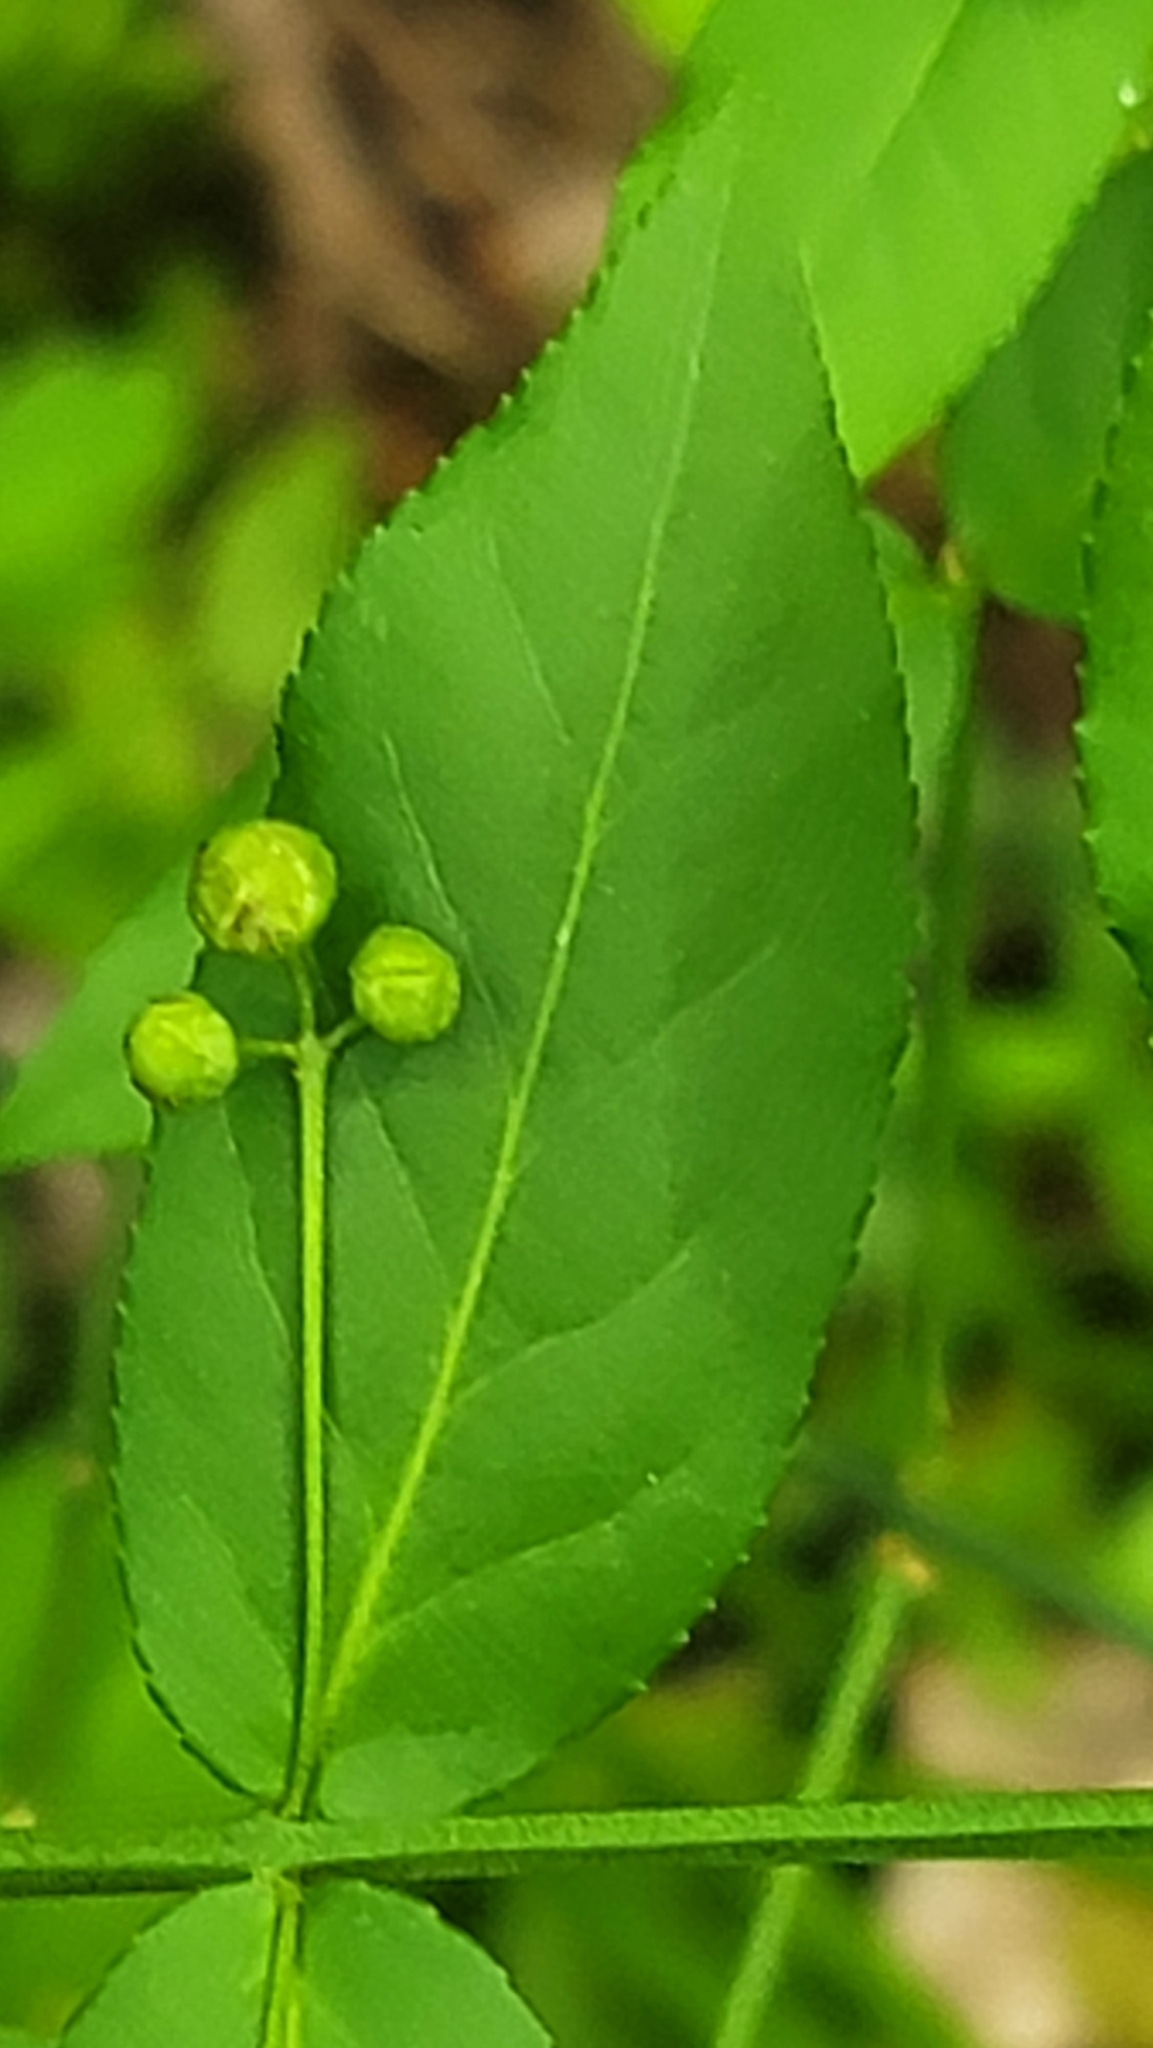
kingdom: Plantae
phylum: Tracheophyta
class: Magnoliopsida
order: Celastrales
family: Celastraceae
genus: Euonymus
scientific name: Euonymus americanus
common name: Bursting-heart
